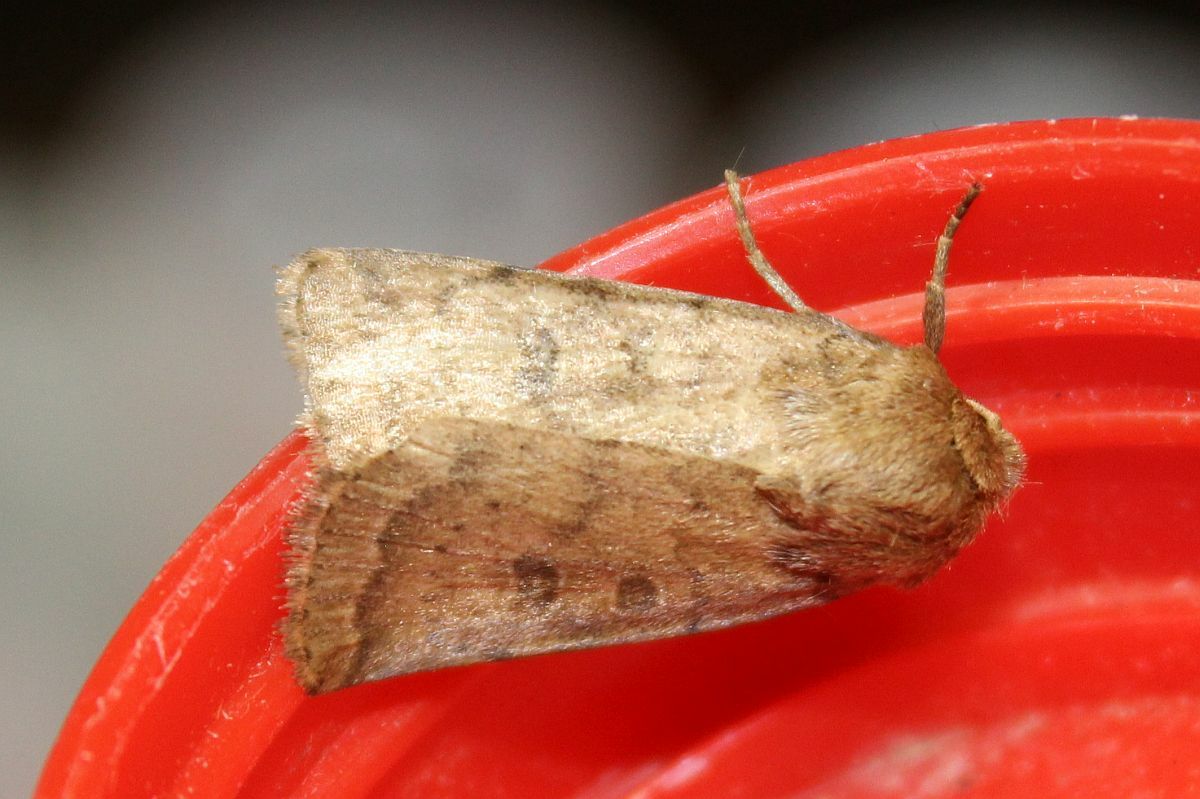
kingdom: Animalia
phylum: Arthropoda
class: Insecta
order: Lepidoptera
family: Noctuidae
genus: Hoplodrina
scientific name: Hoplodrina octogenaria
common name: Uncertain
